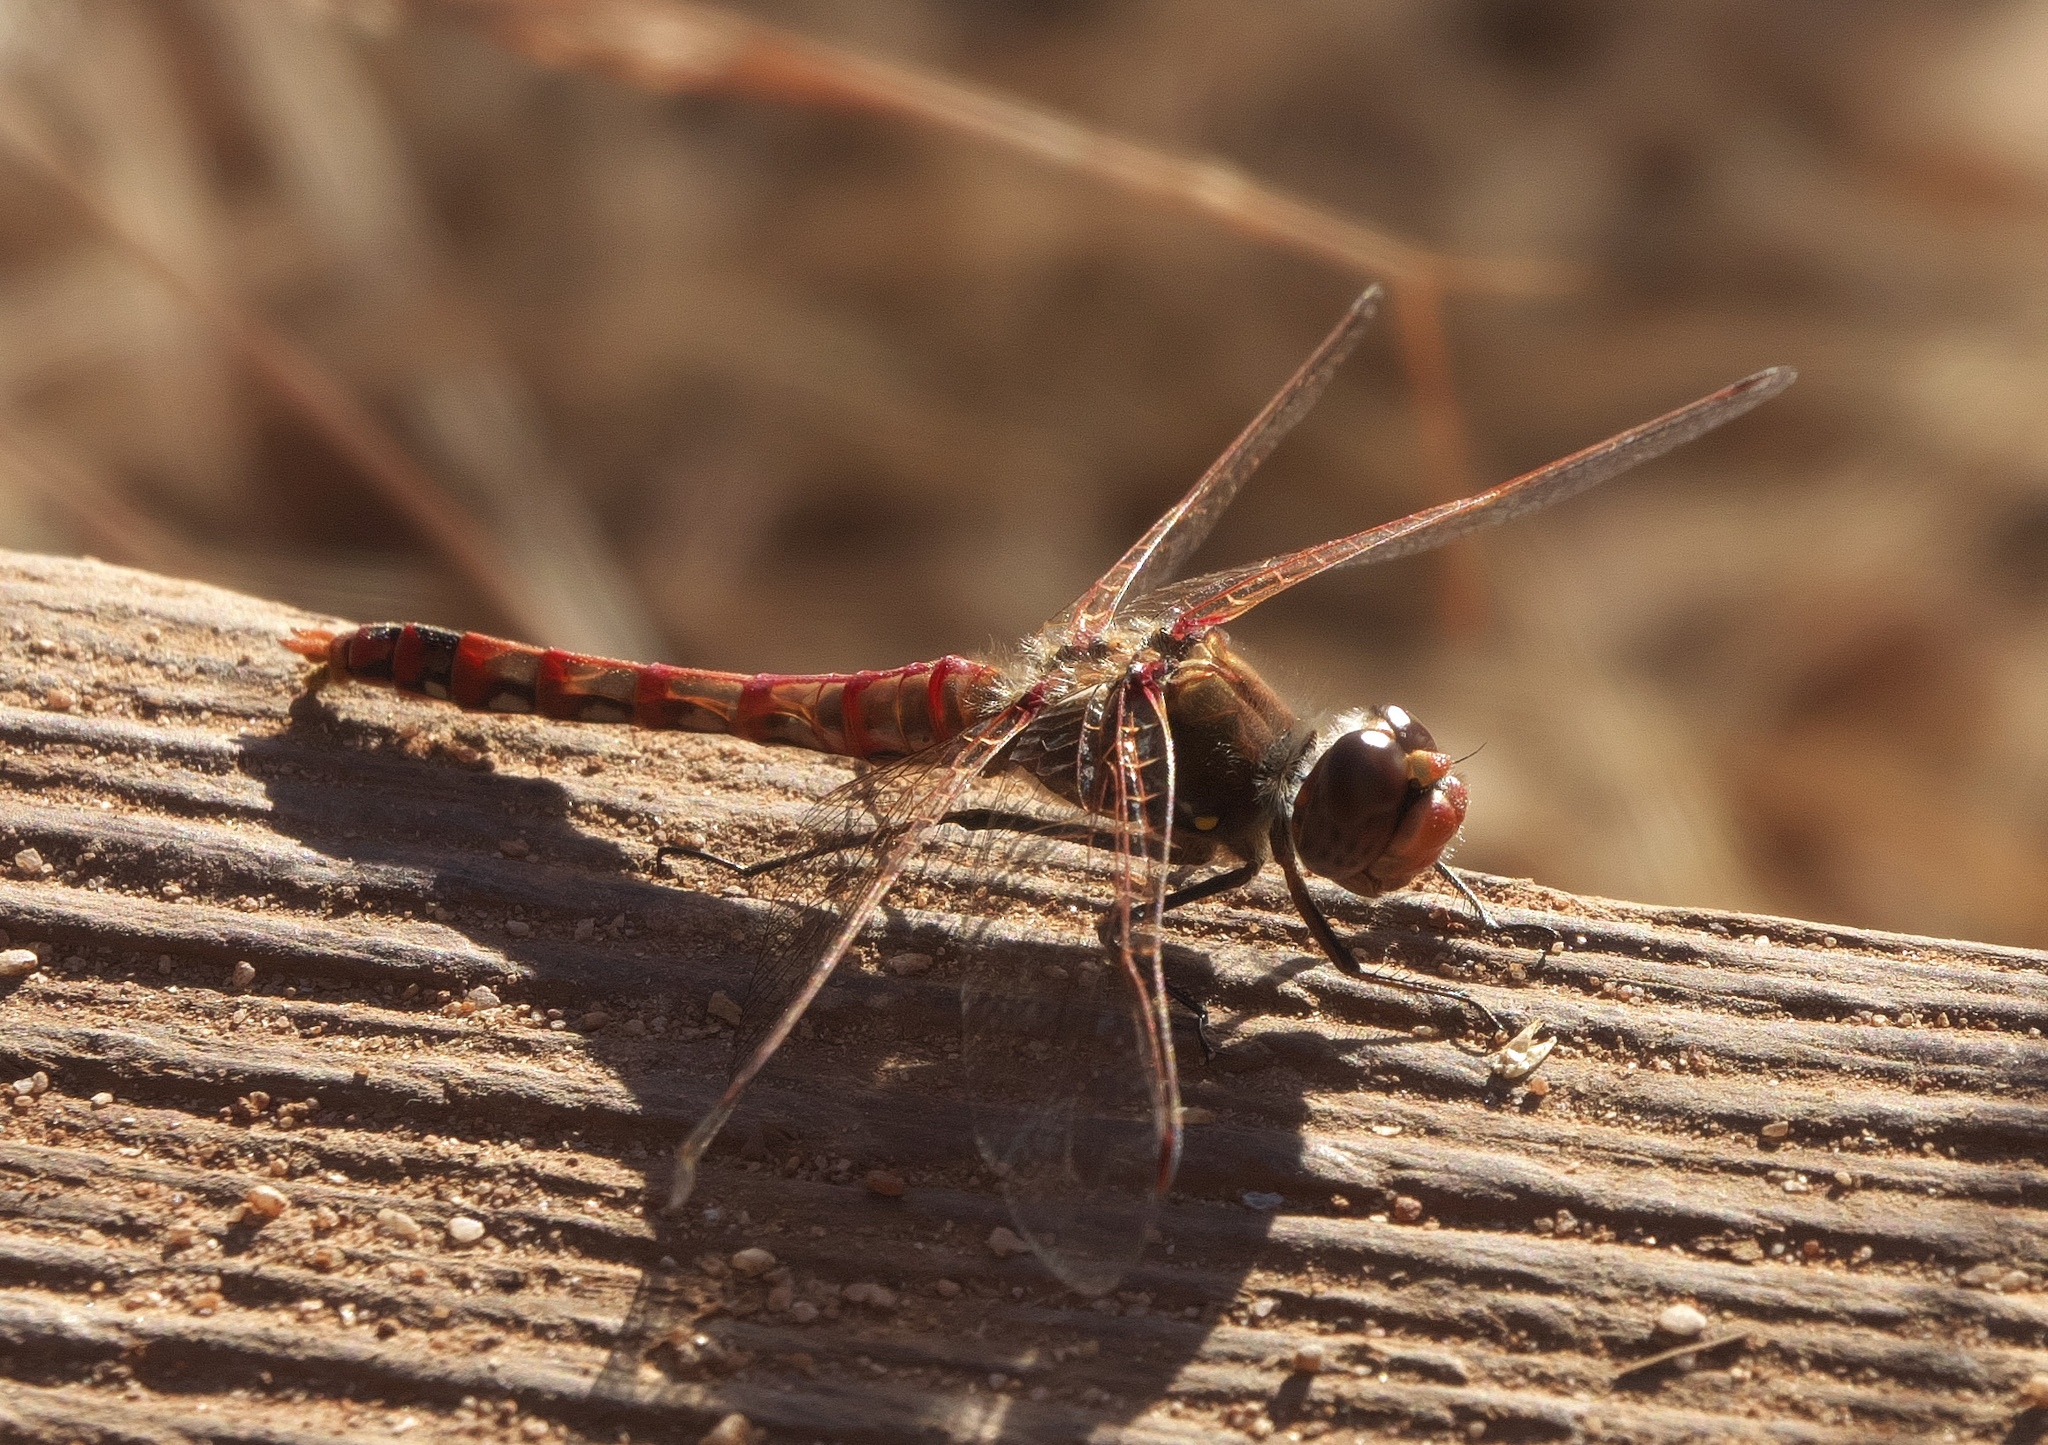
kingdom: Animalia
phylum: Arthropoda
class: Insecta
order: Odonata
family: Libellulidae
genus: Sympetrum
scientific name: Sympetrum corruptum
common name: Variegated meadowhawk
